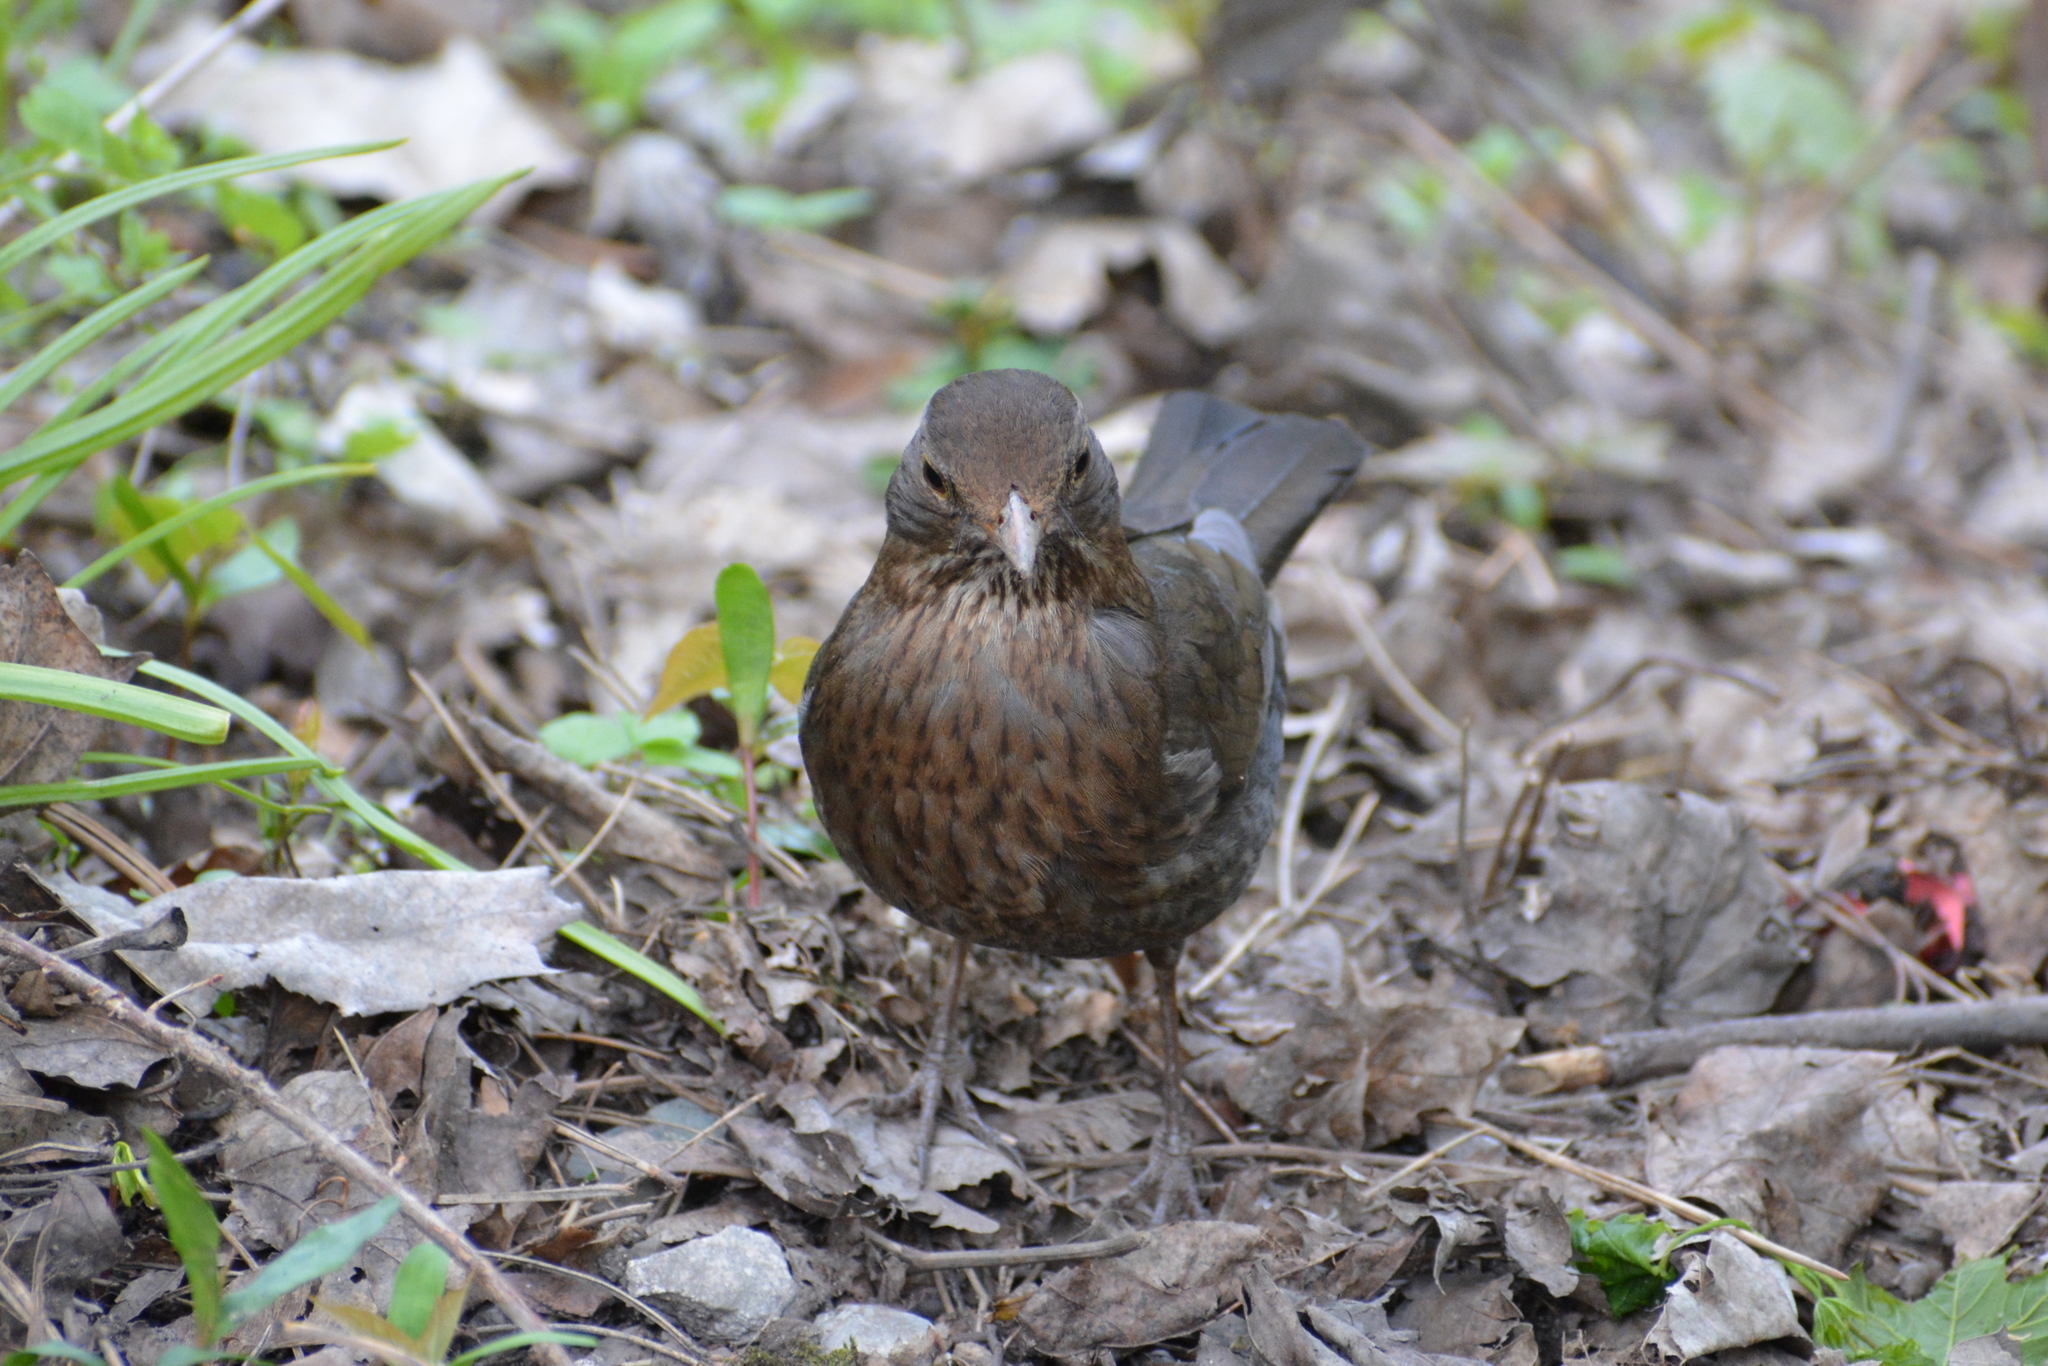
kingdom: Animalia
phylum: Chordata
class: Aves
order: Passeriformes
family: Turdidae
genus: Turdus
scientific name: Turdus merula
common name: Common blackbird
